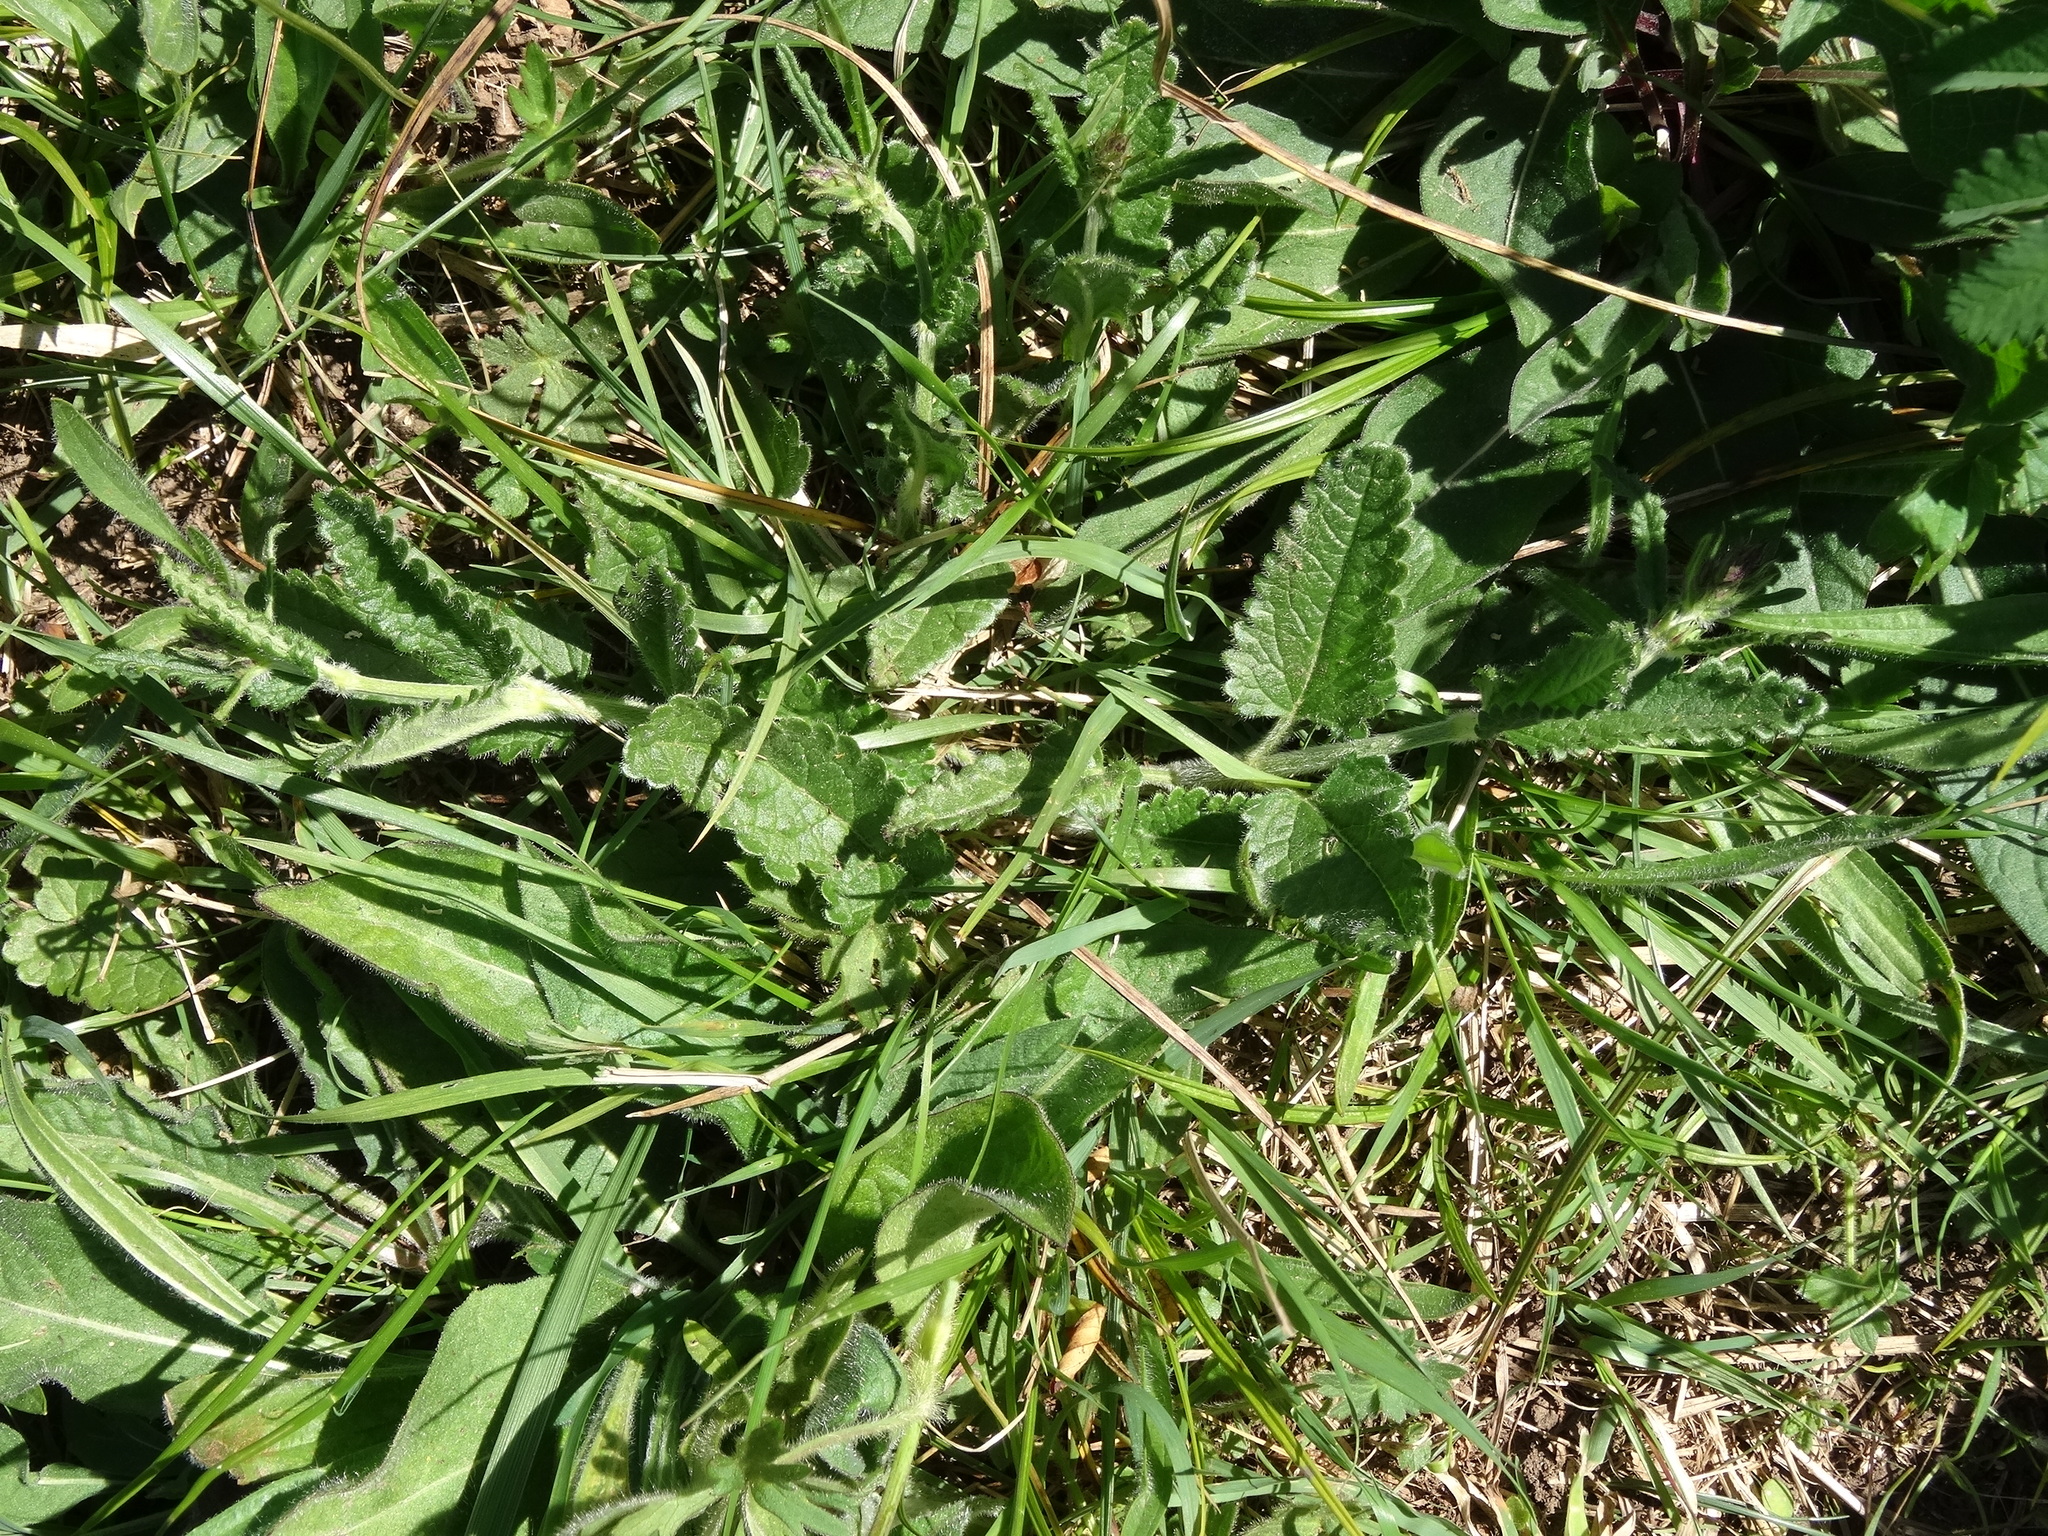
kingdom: Plantae
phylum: Tracheophyta
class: Magnoliopsida
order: Lamiales
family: Lamiaceae
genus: Betonica
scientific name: Betonica officinalis
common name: Bishop's-wort
